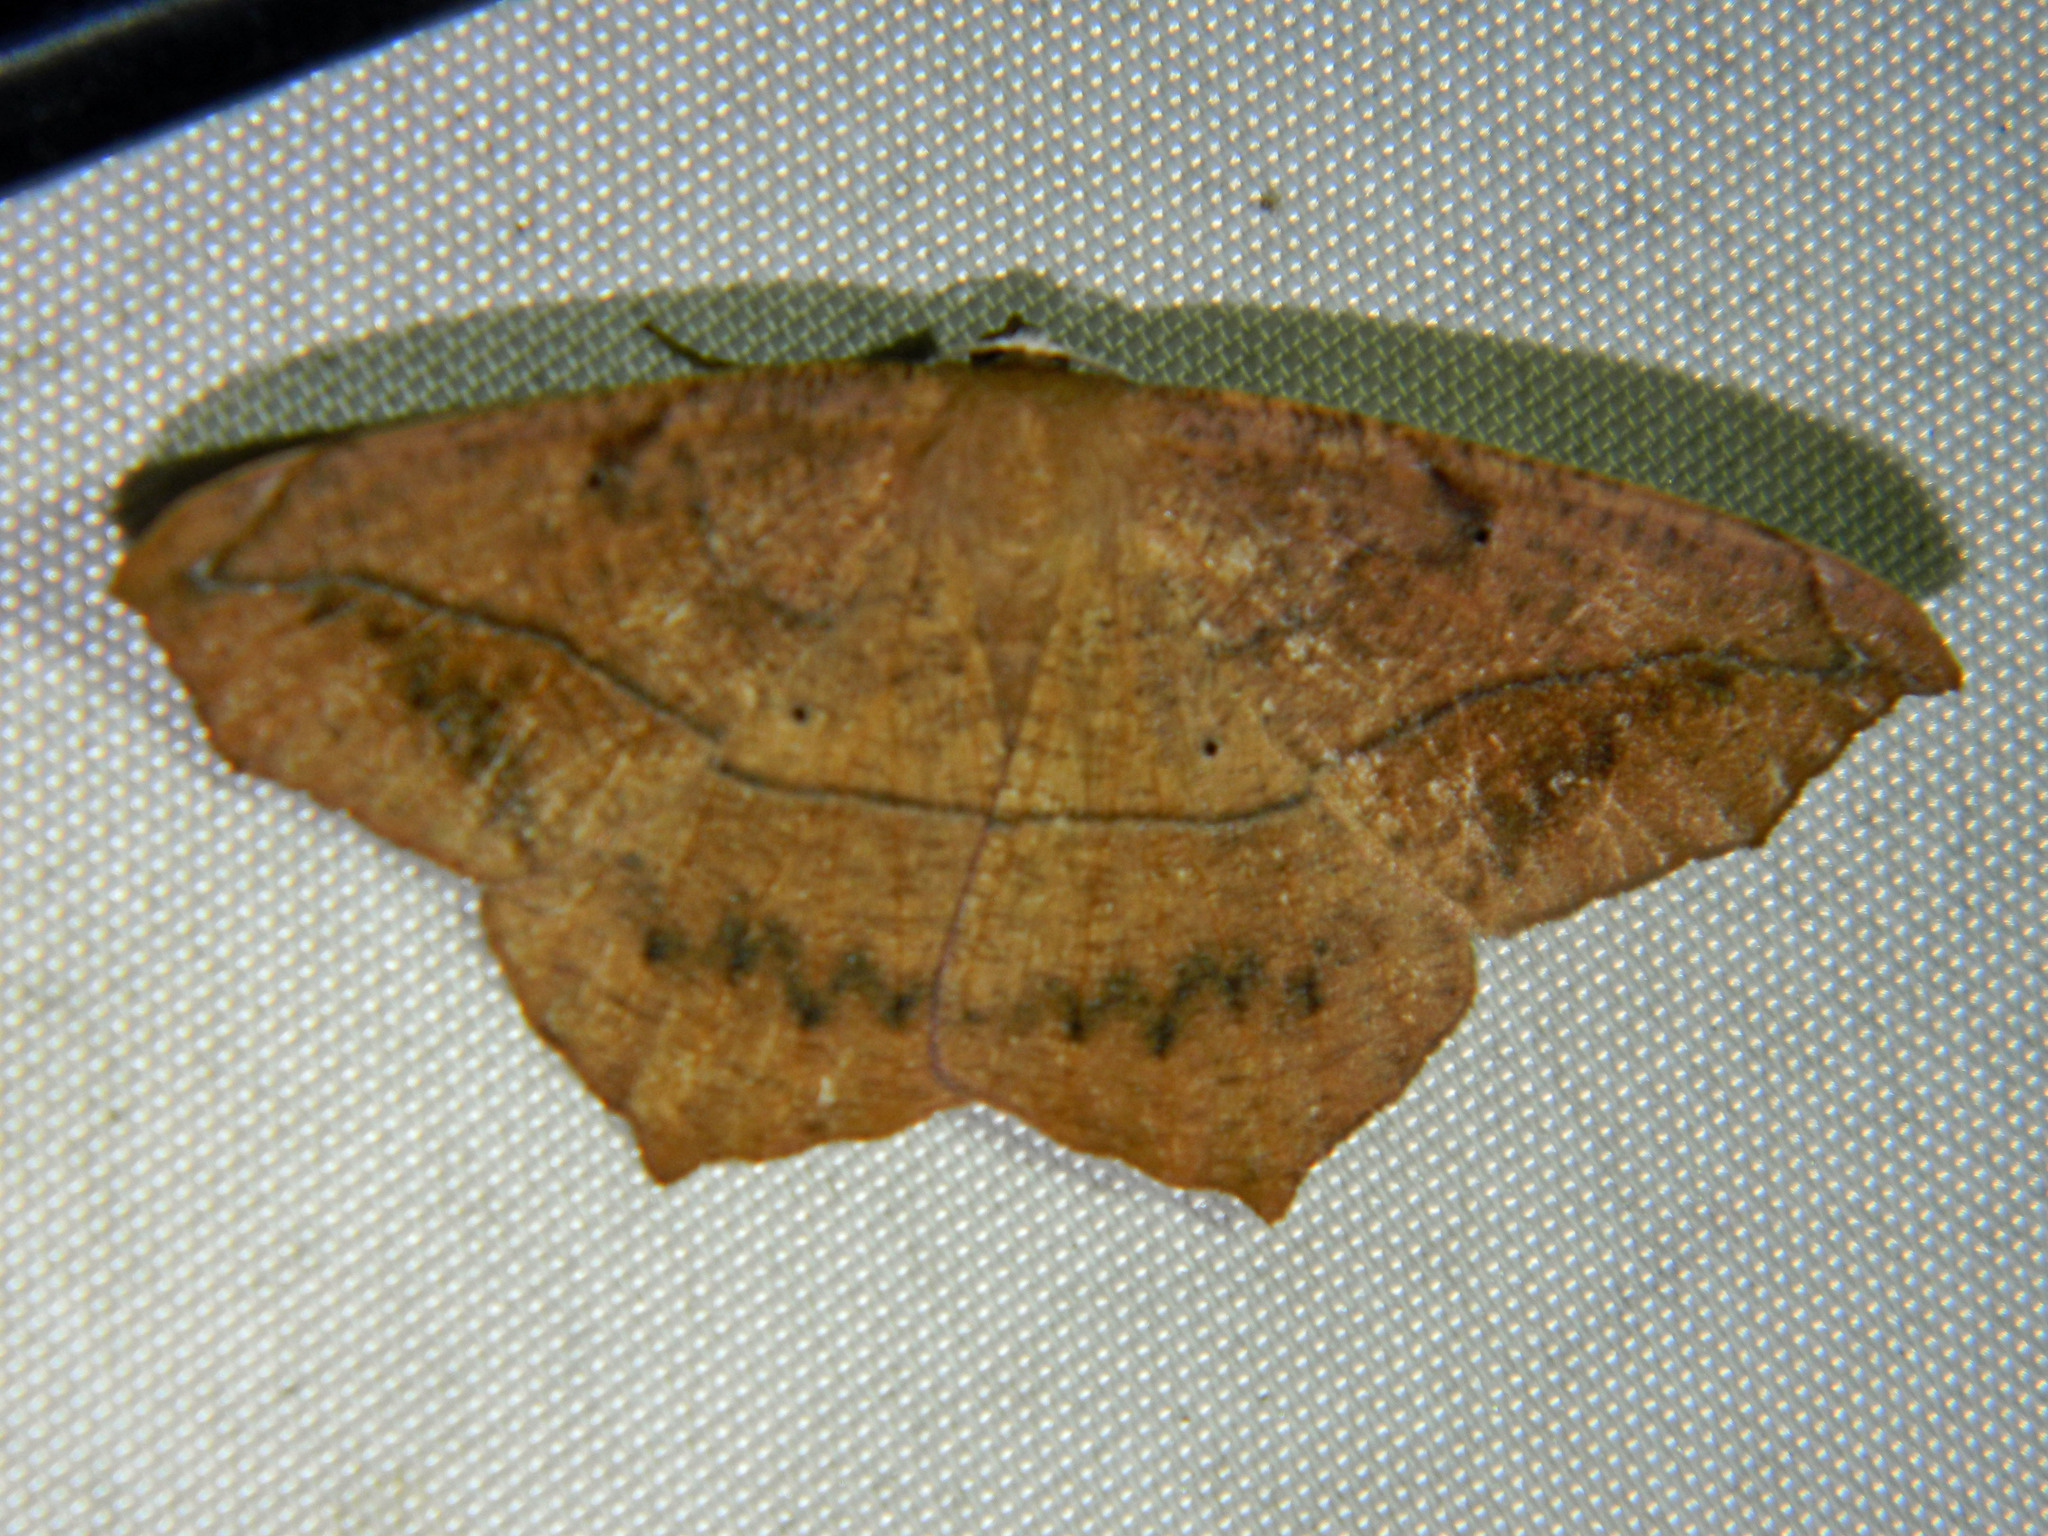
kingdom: Animalia
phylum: Arthropoda
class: Insecta
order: Lepidoptera
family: Geometridae
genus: Prochoerodes
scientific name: Prochoerodes lineola
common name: Large maple spanworm
